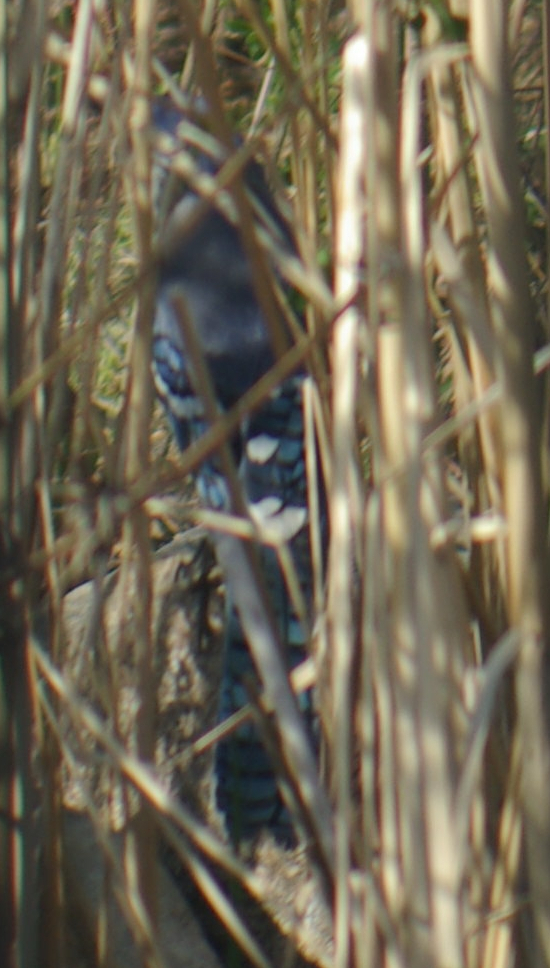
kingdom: Animalia
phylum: Chordata
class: Aves
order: Passeriformes
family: Corvidae
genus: Cyanocitta
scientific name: Cyanocitta cristata
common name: Blue jay
